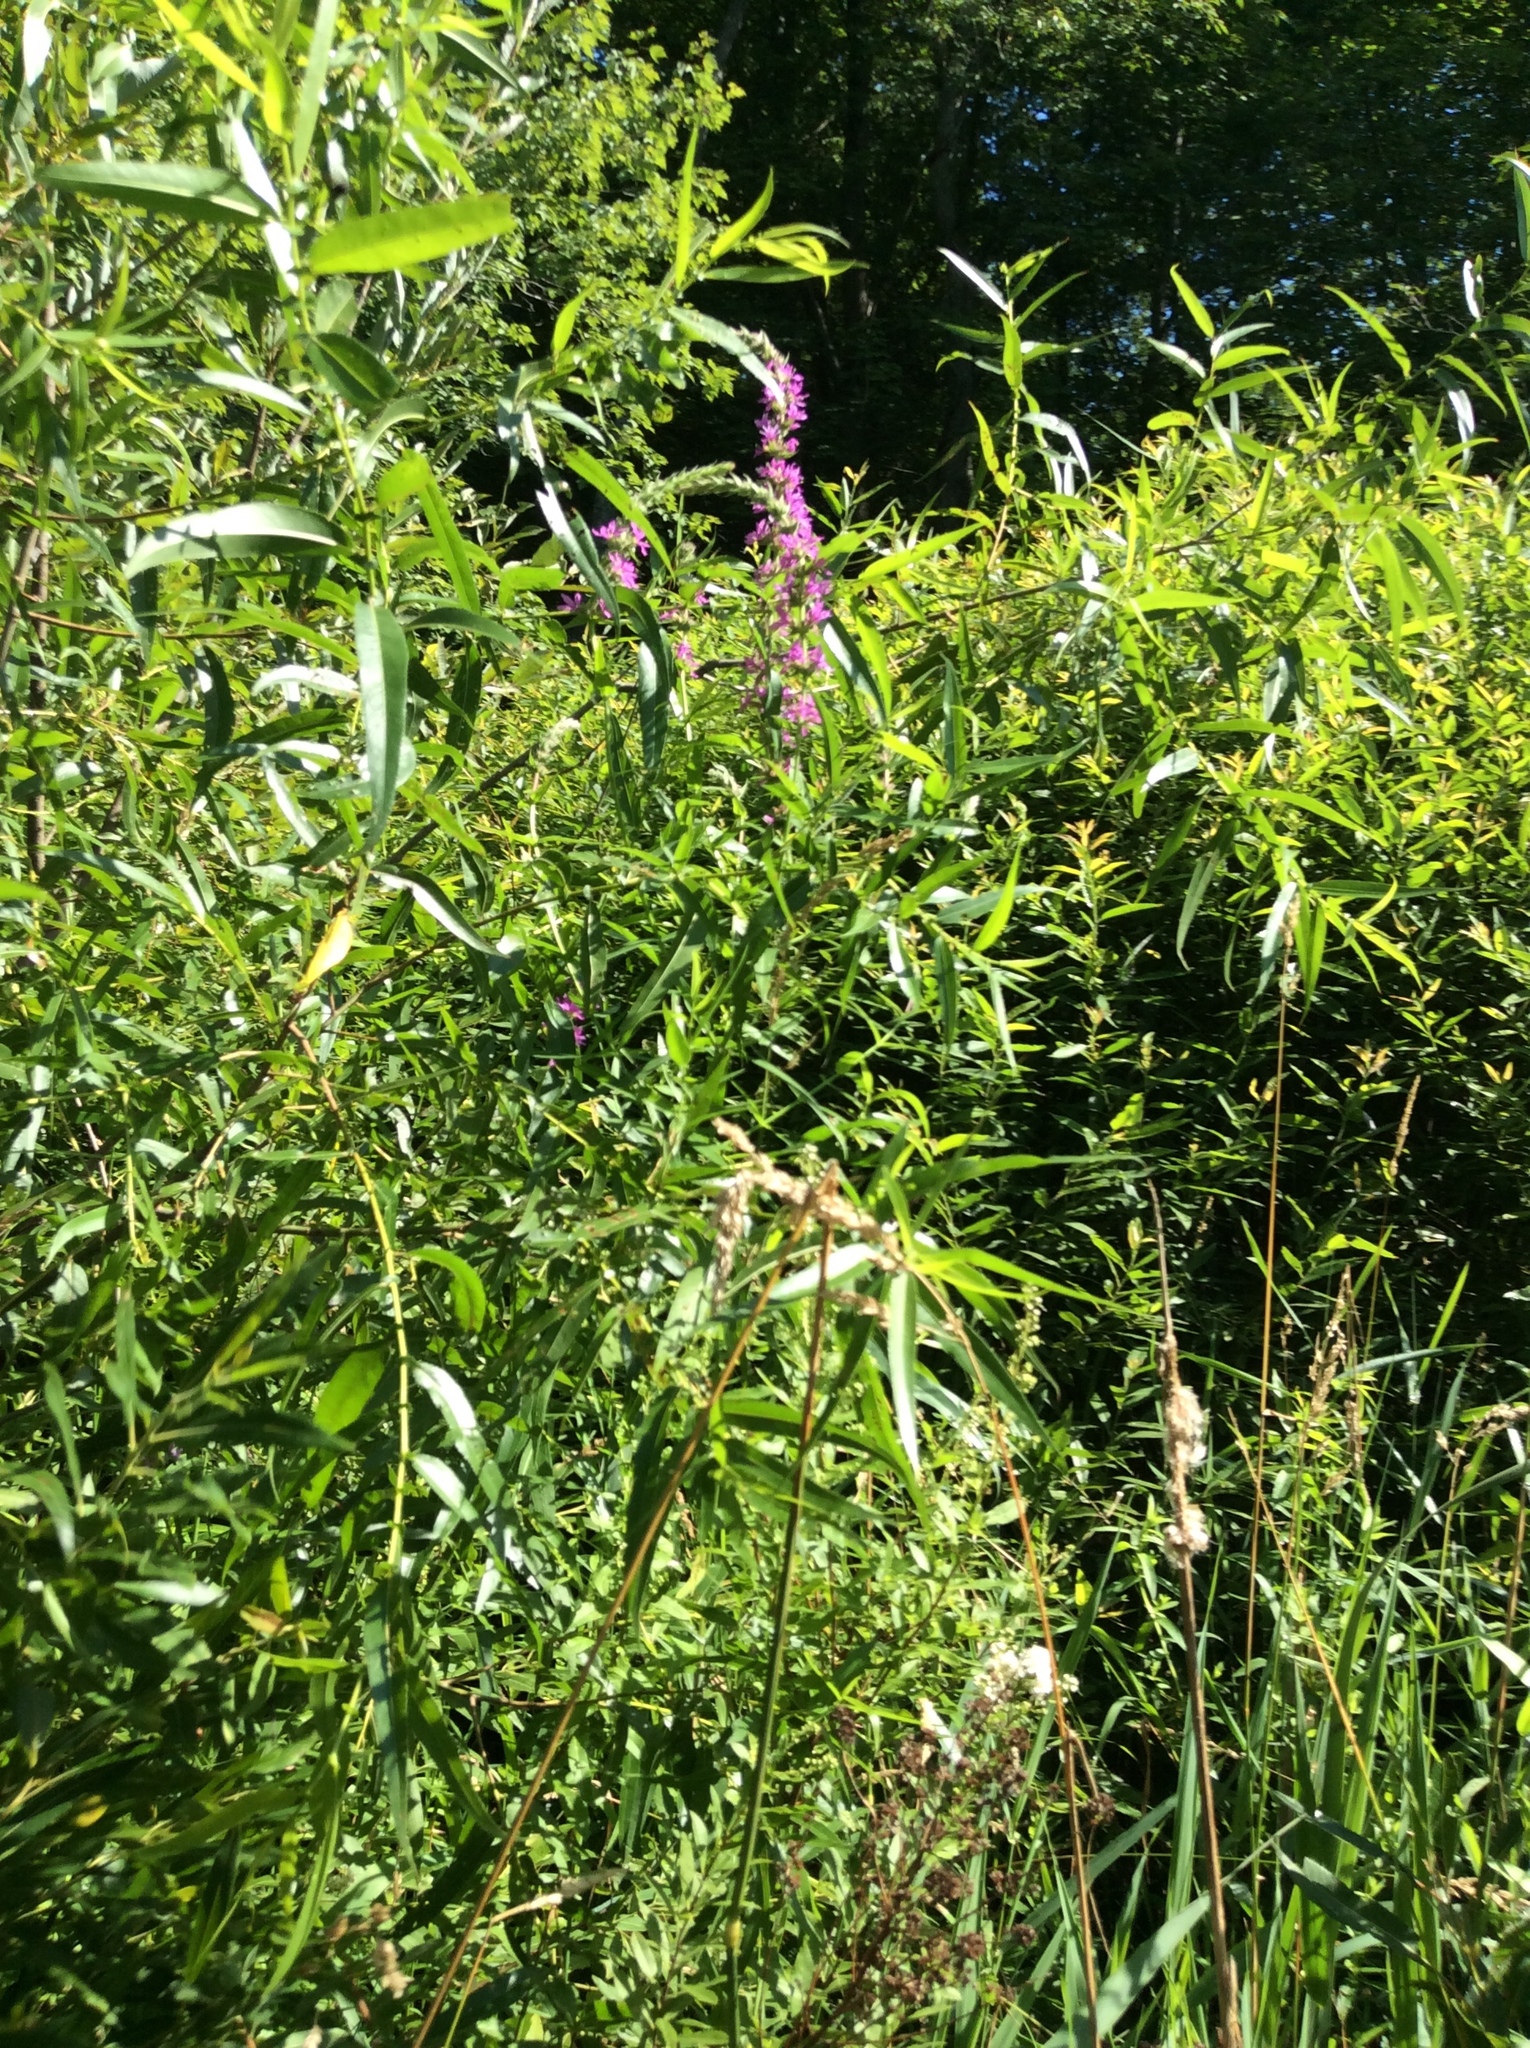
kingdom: Plantae
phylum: Tracheophyta
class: Magnoliopsida
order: Myrtales
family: Lythraceae
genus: Lythrum
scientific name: Lythrum salicaria
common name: Purple loosestrife
